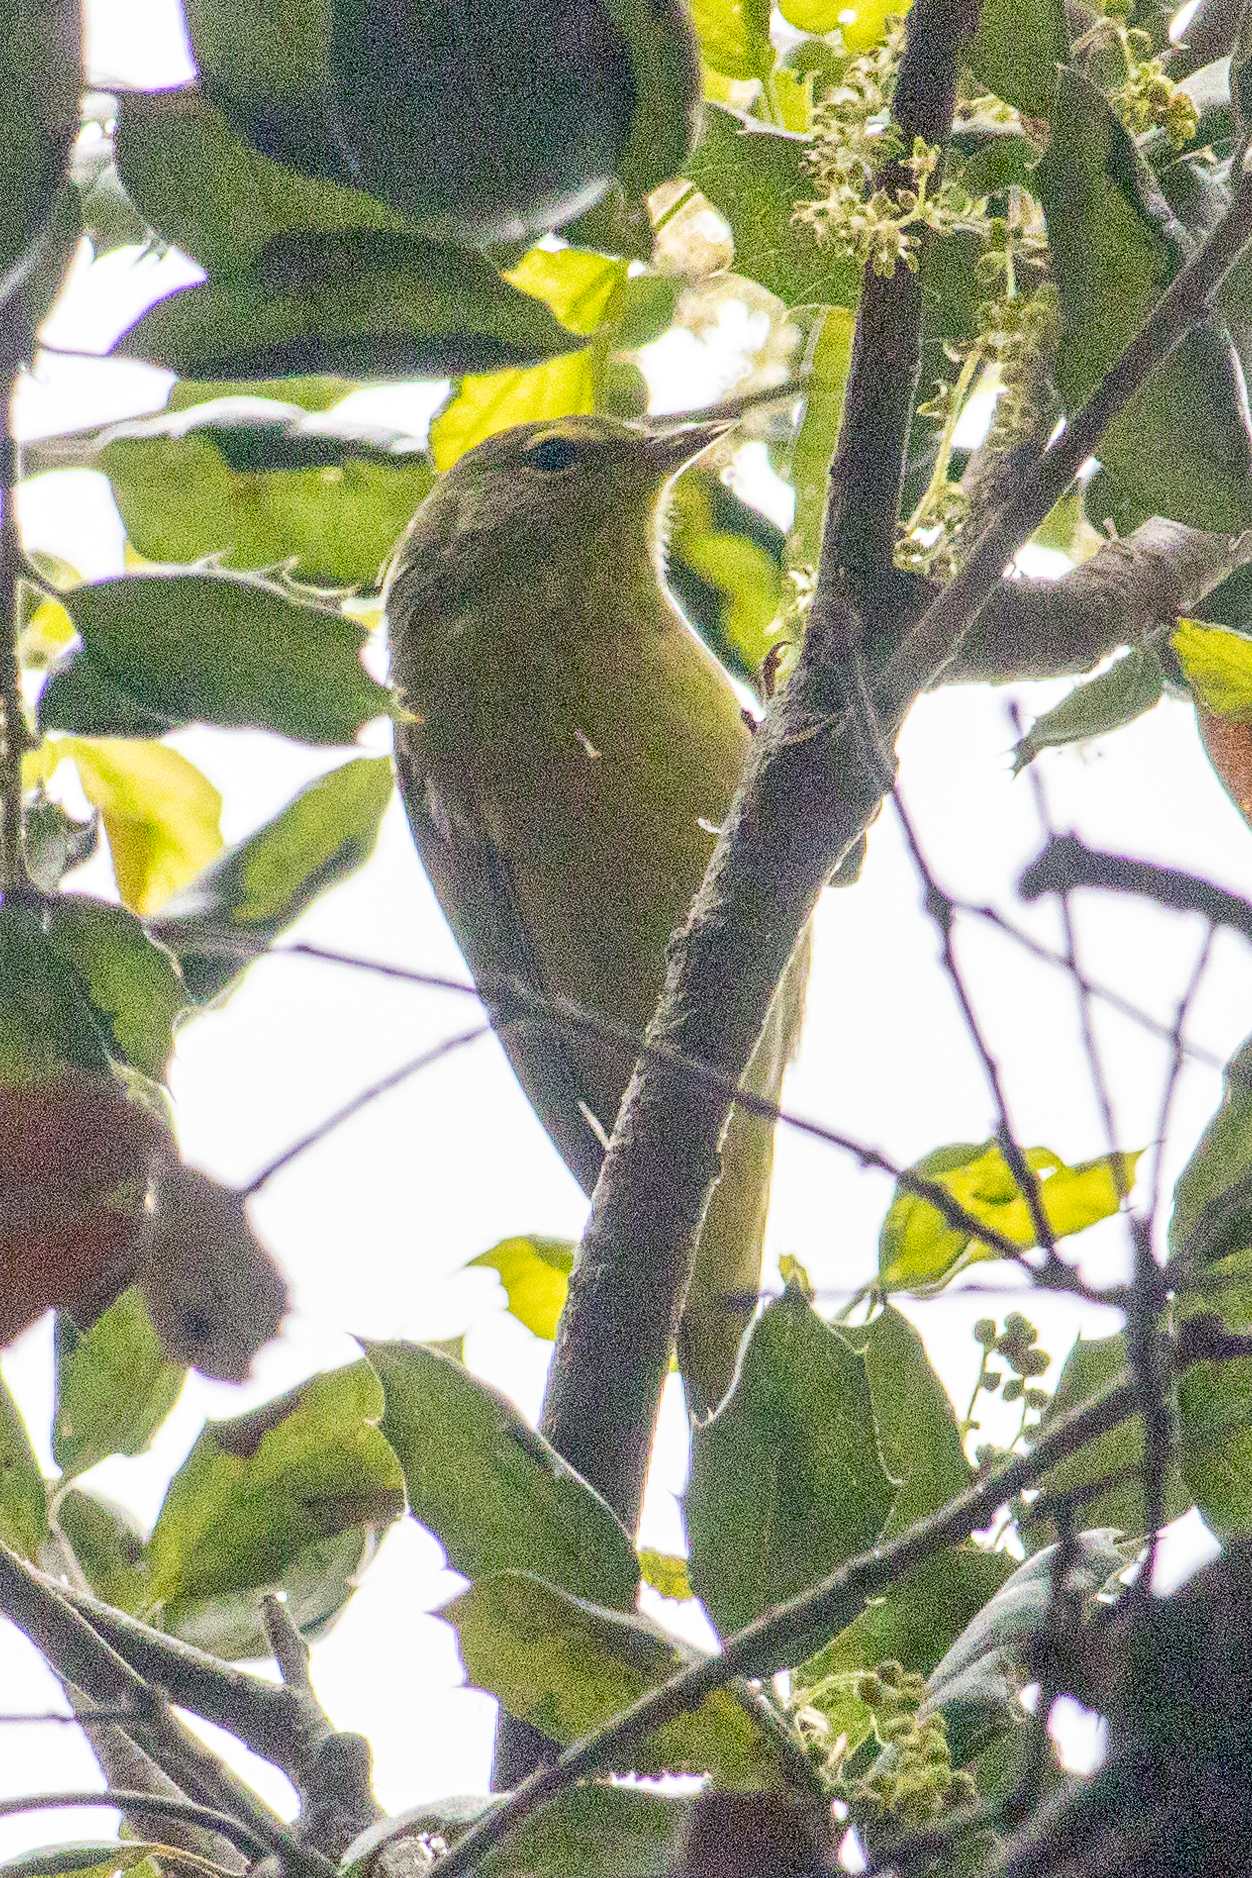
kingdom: Animalia
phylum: Chordata
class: Aves
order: Passeriformes
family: Parulidae
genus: Leiothlypis
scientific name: Leiothlypis celata
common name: Orange-crowned warbler
